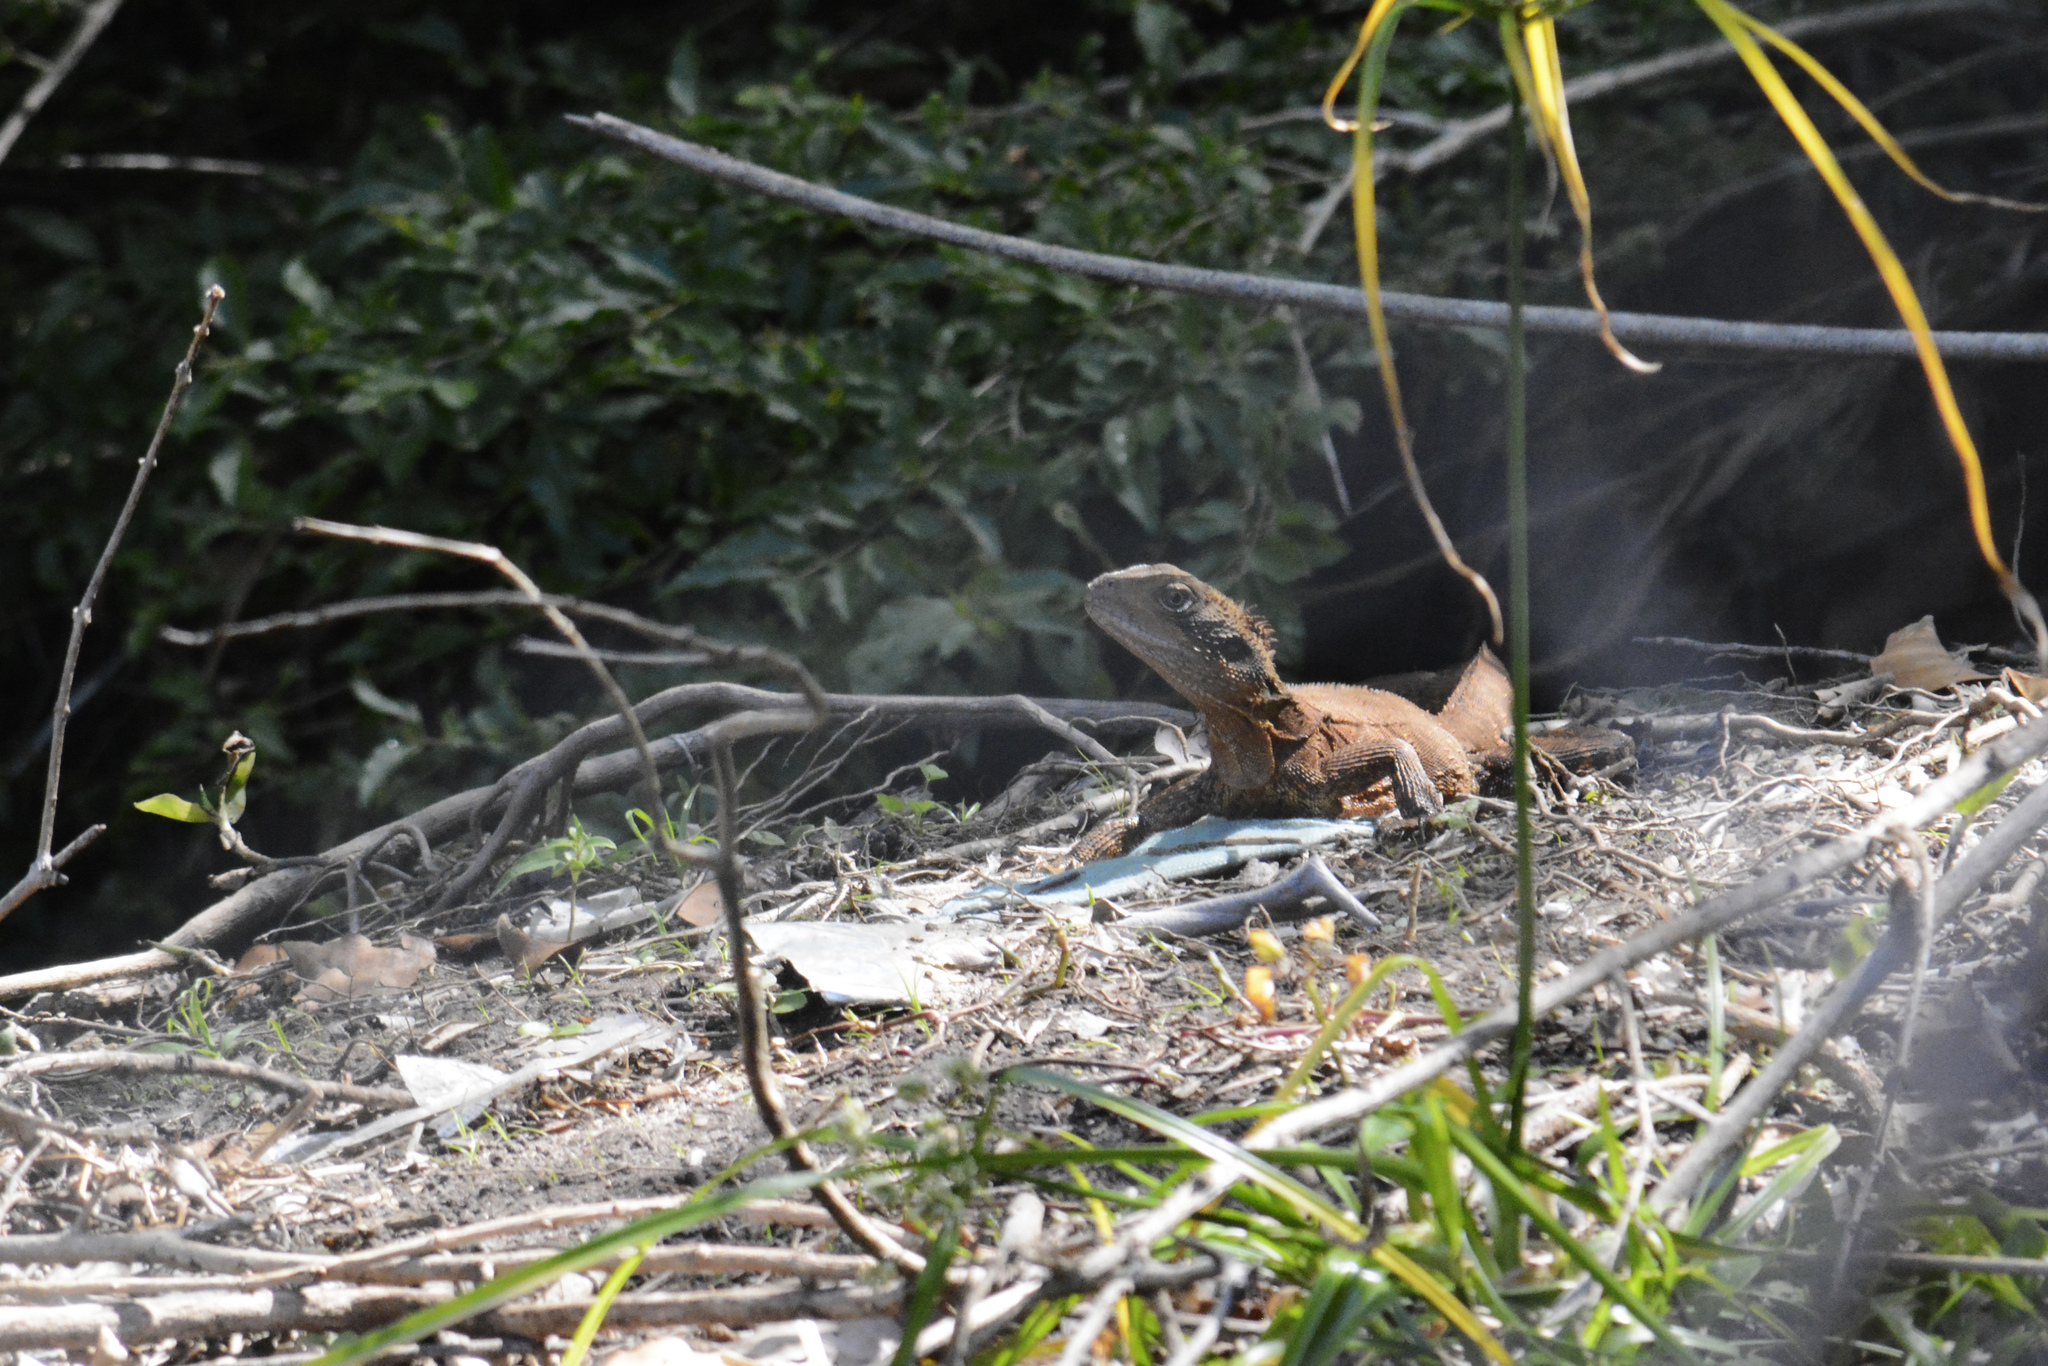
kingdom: Animalia
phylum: Chordata
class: Squamata
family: Agamidae
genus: Intellagama
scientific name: Intellagama lesueurii
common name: Eastern water dragon
